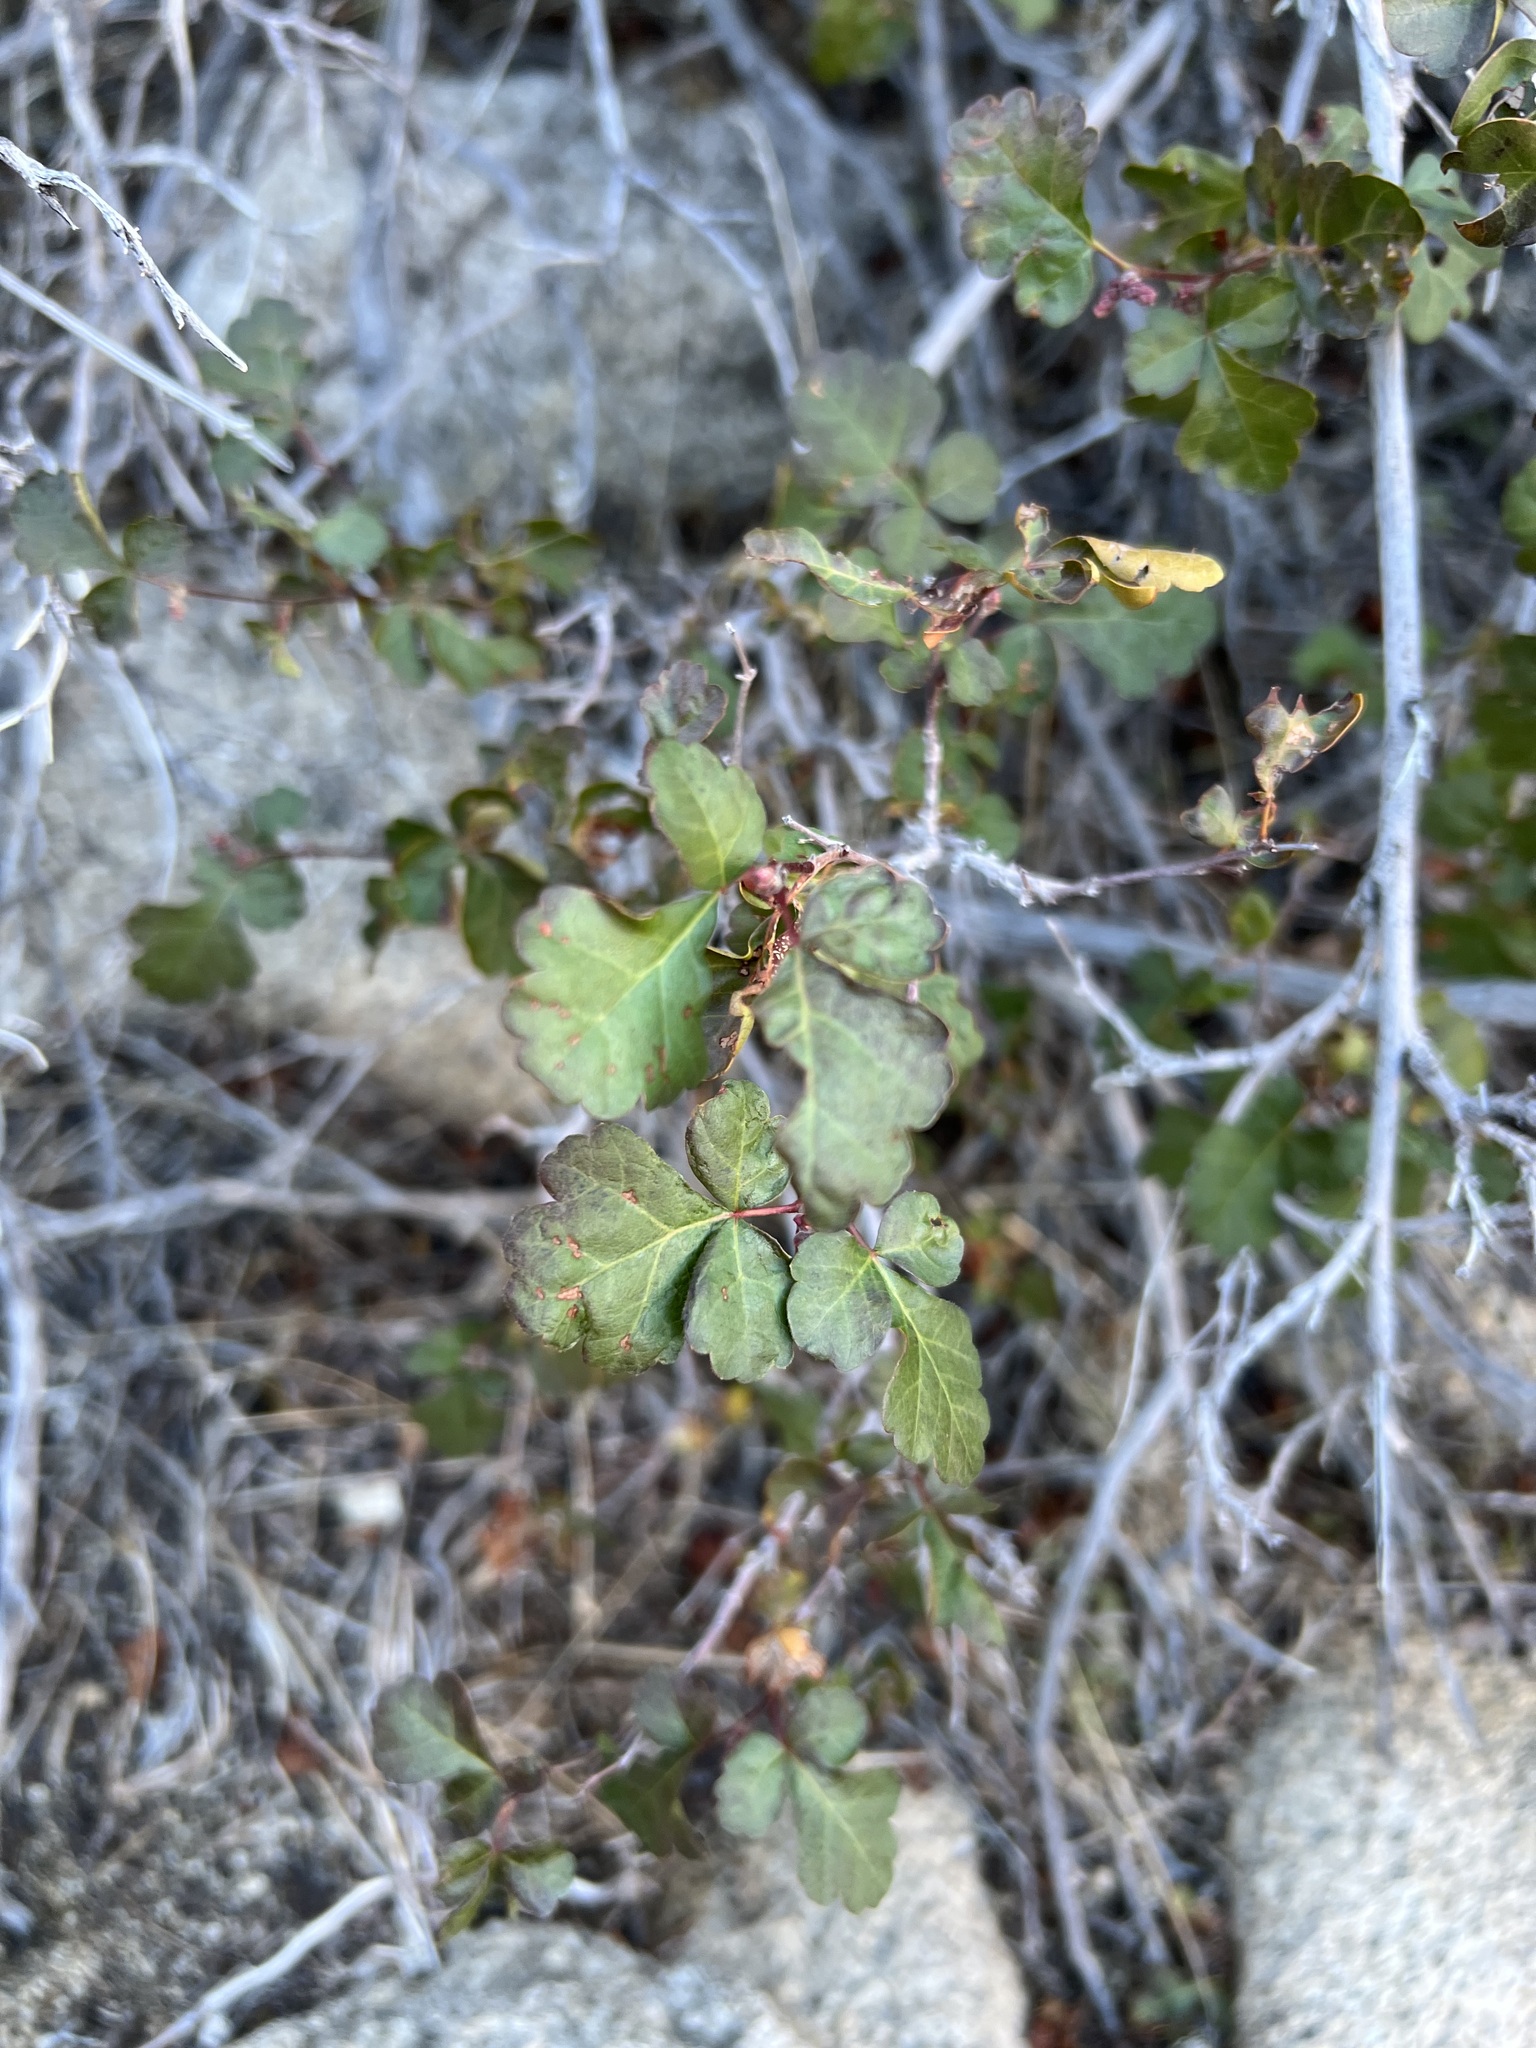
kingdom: Plantae
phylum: Tracheophyta
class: Magnoliopsida
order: Sapindales
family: Anacardiaceae
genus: Rhus
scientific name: Rhus aromatica
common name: Aromatic sumac
